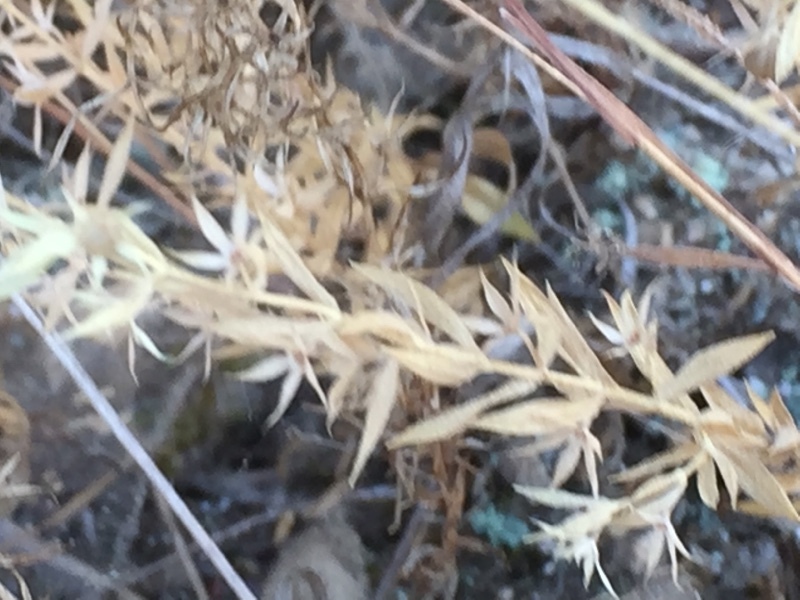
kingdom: Plantae
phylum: Tracheophyta
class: Magnoliopsida
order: Ericales
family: Primulaceae
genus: Lysimachia
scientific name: Lysimachia linum-stellatum
